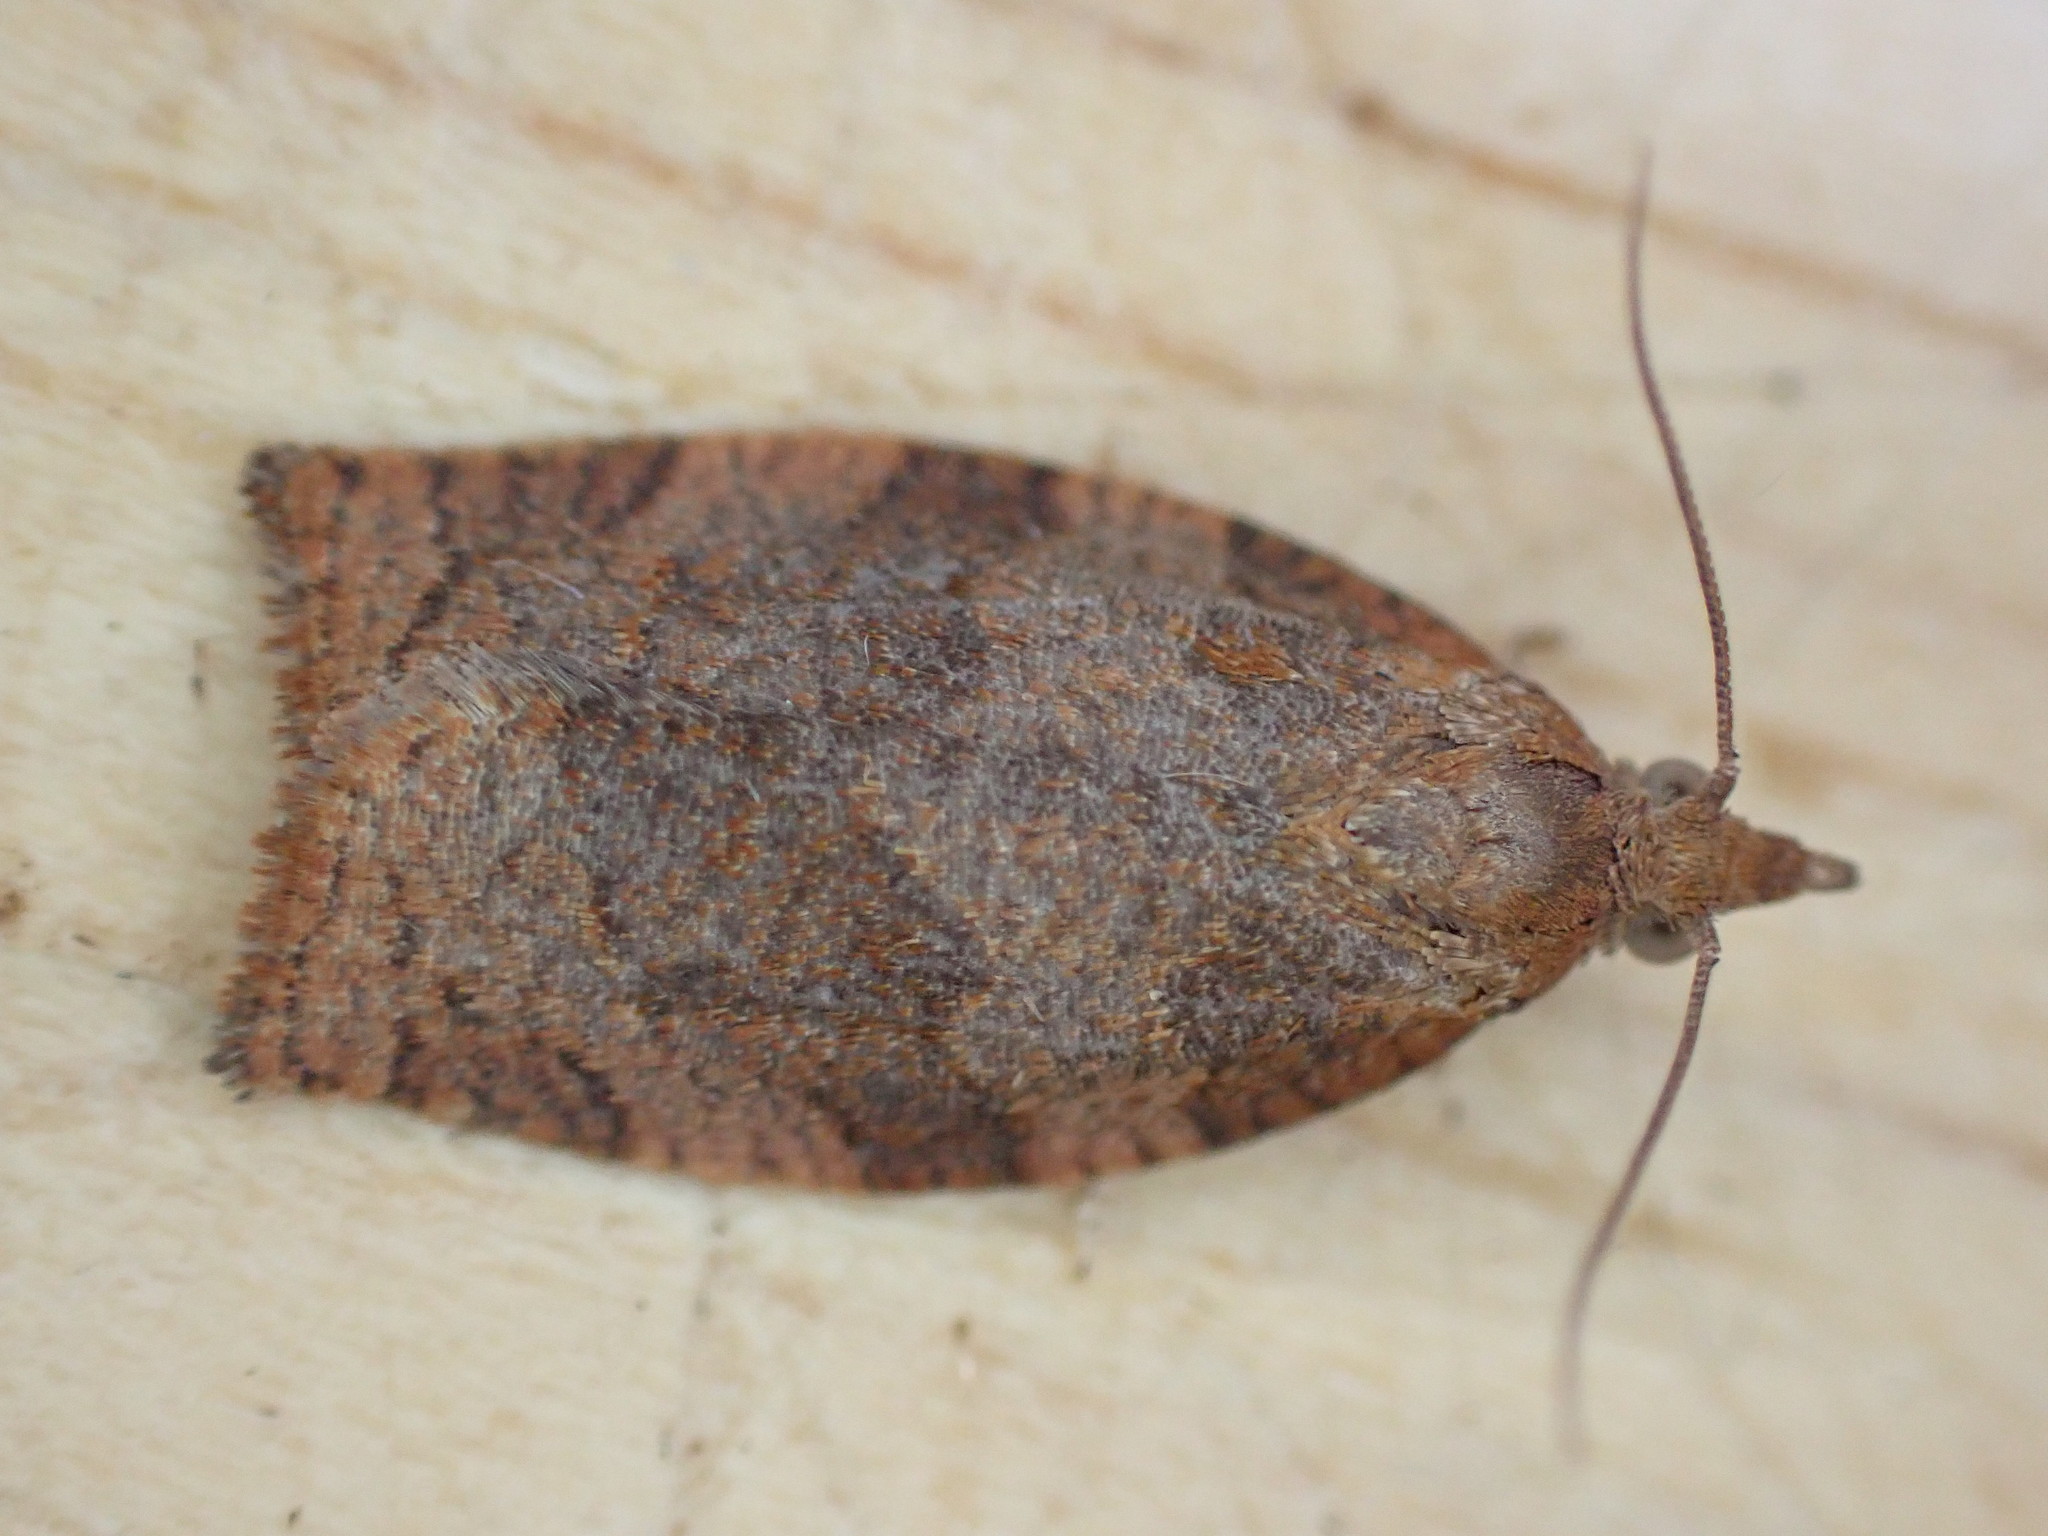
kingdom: Animalia
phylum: Arthropoda
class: Insecta
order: Lepidoptera
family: Tortricidae
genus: Pandemis
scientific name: Pandemis heparana
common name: Dark fruit-tree tortrix
